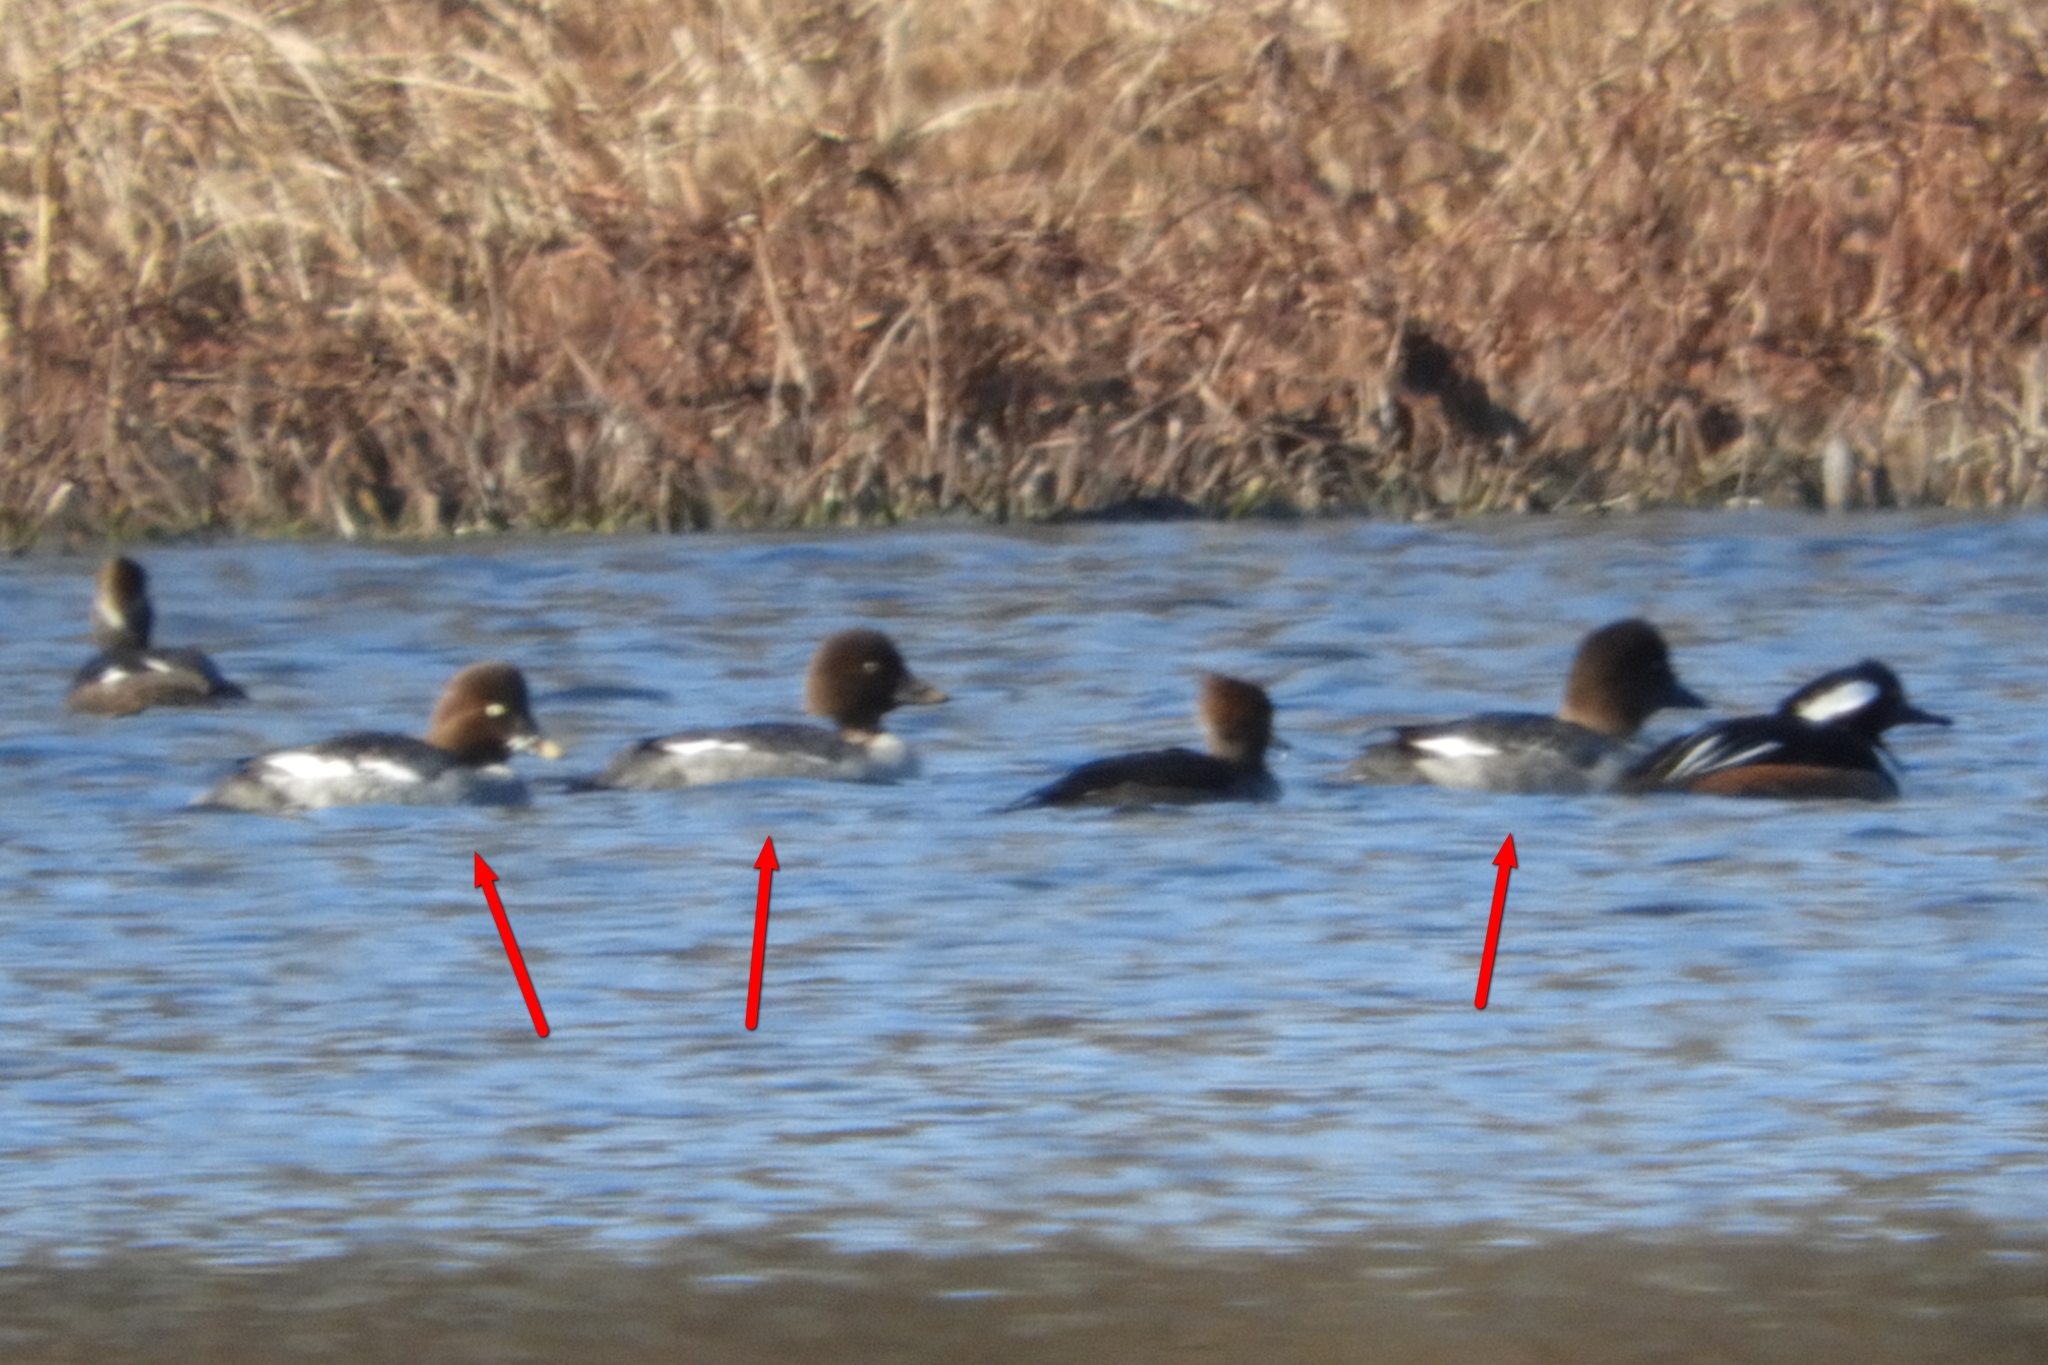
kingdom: Animalia
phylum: Chordata
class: Aves
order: Anseriformes
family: Anatidae
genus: Bucephala
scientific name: Bucephala clangula
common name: Common goldeneye
